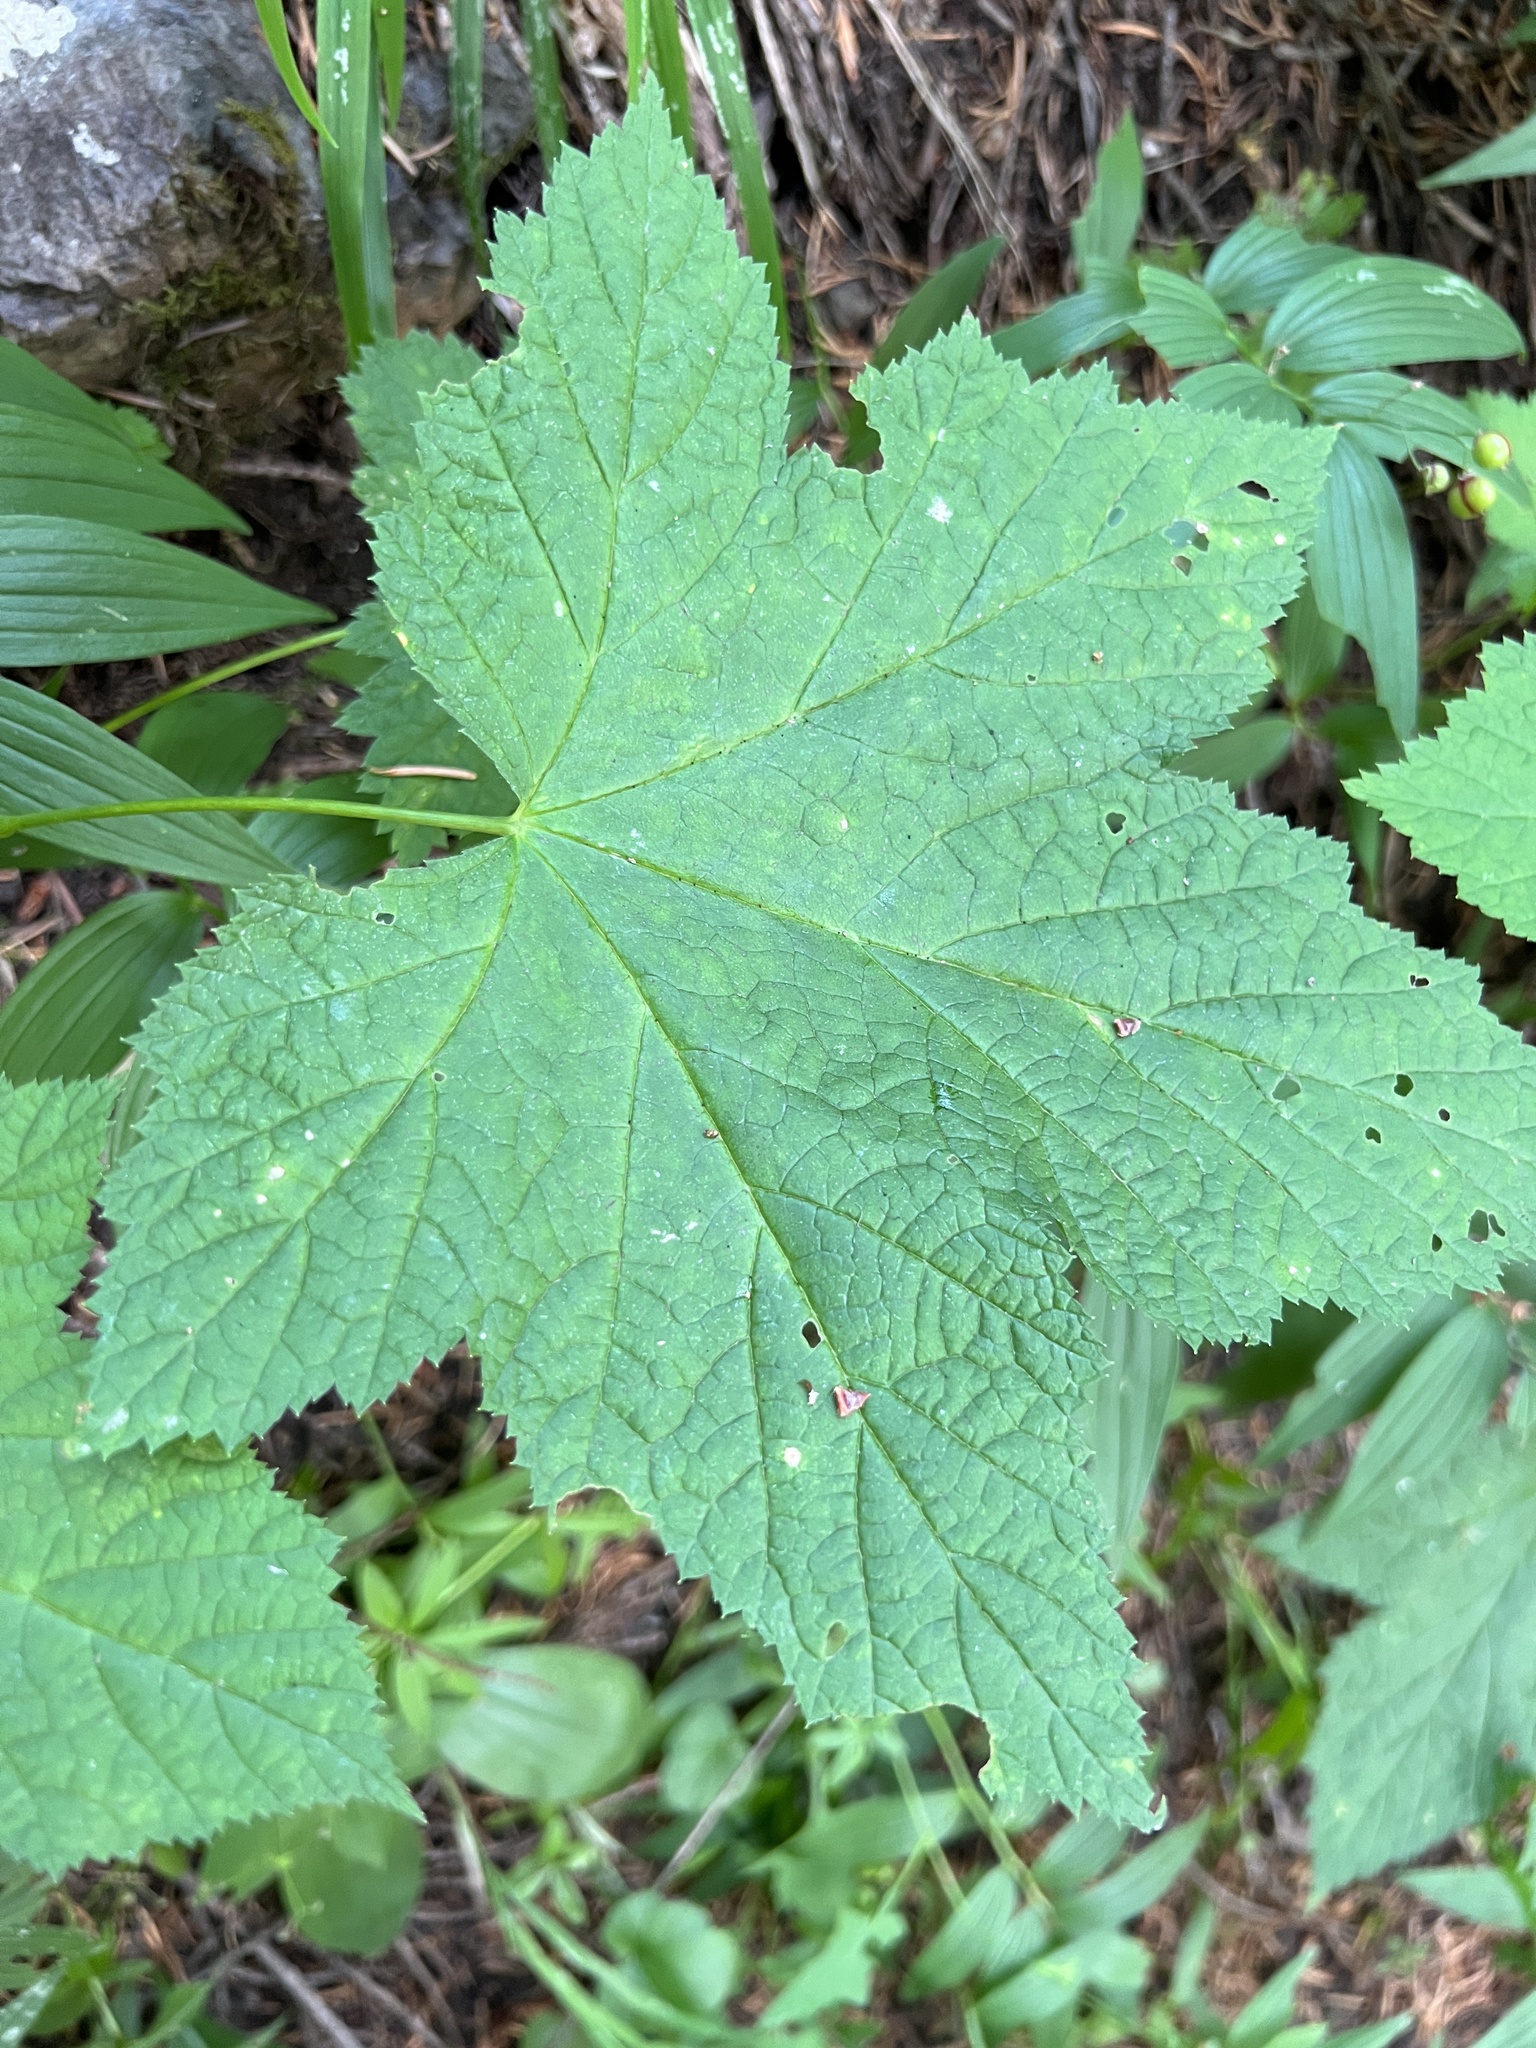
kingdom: Plantae
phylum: Tracheophyta
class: Magnoliopsida
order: Rosales
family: Rosaceae
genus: Rubus
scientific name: Rubus parviflorus
